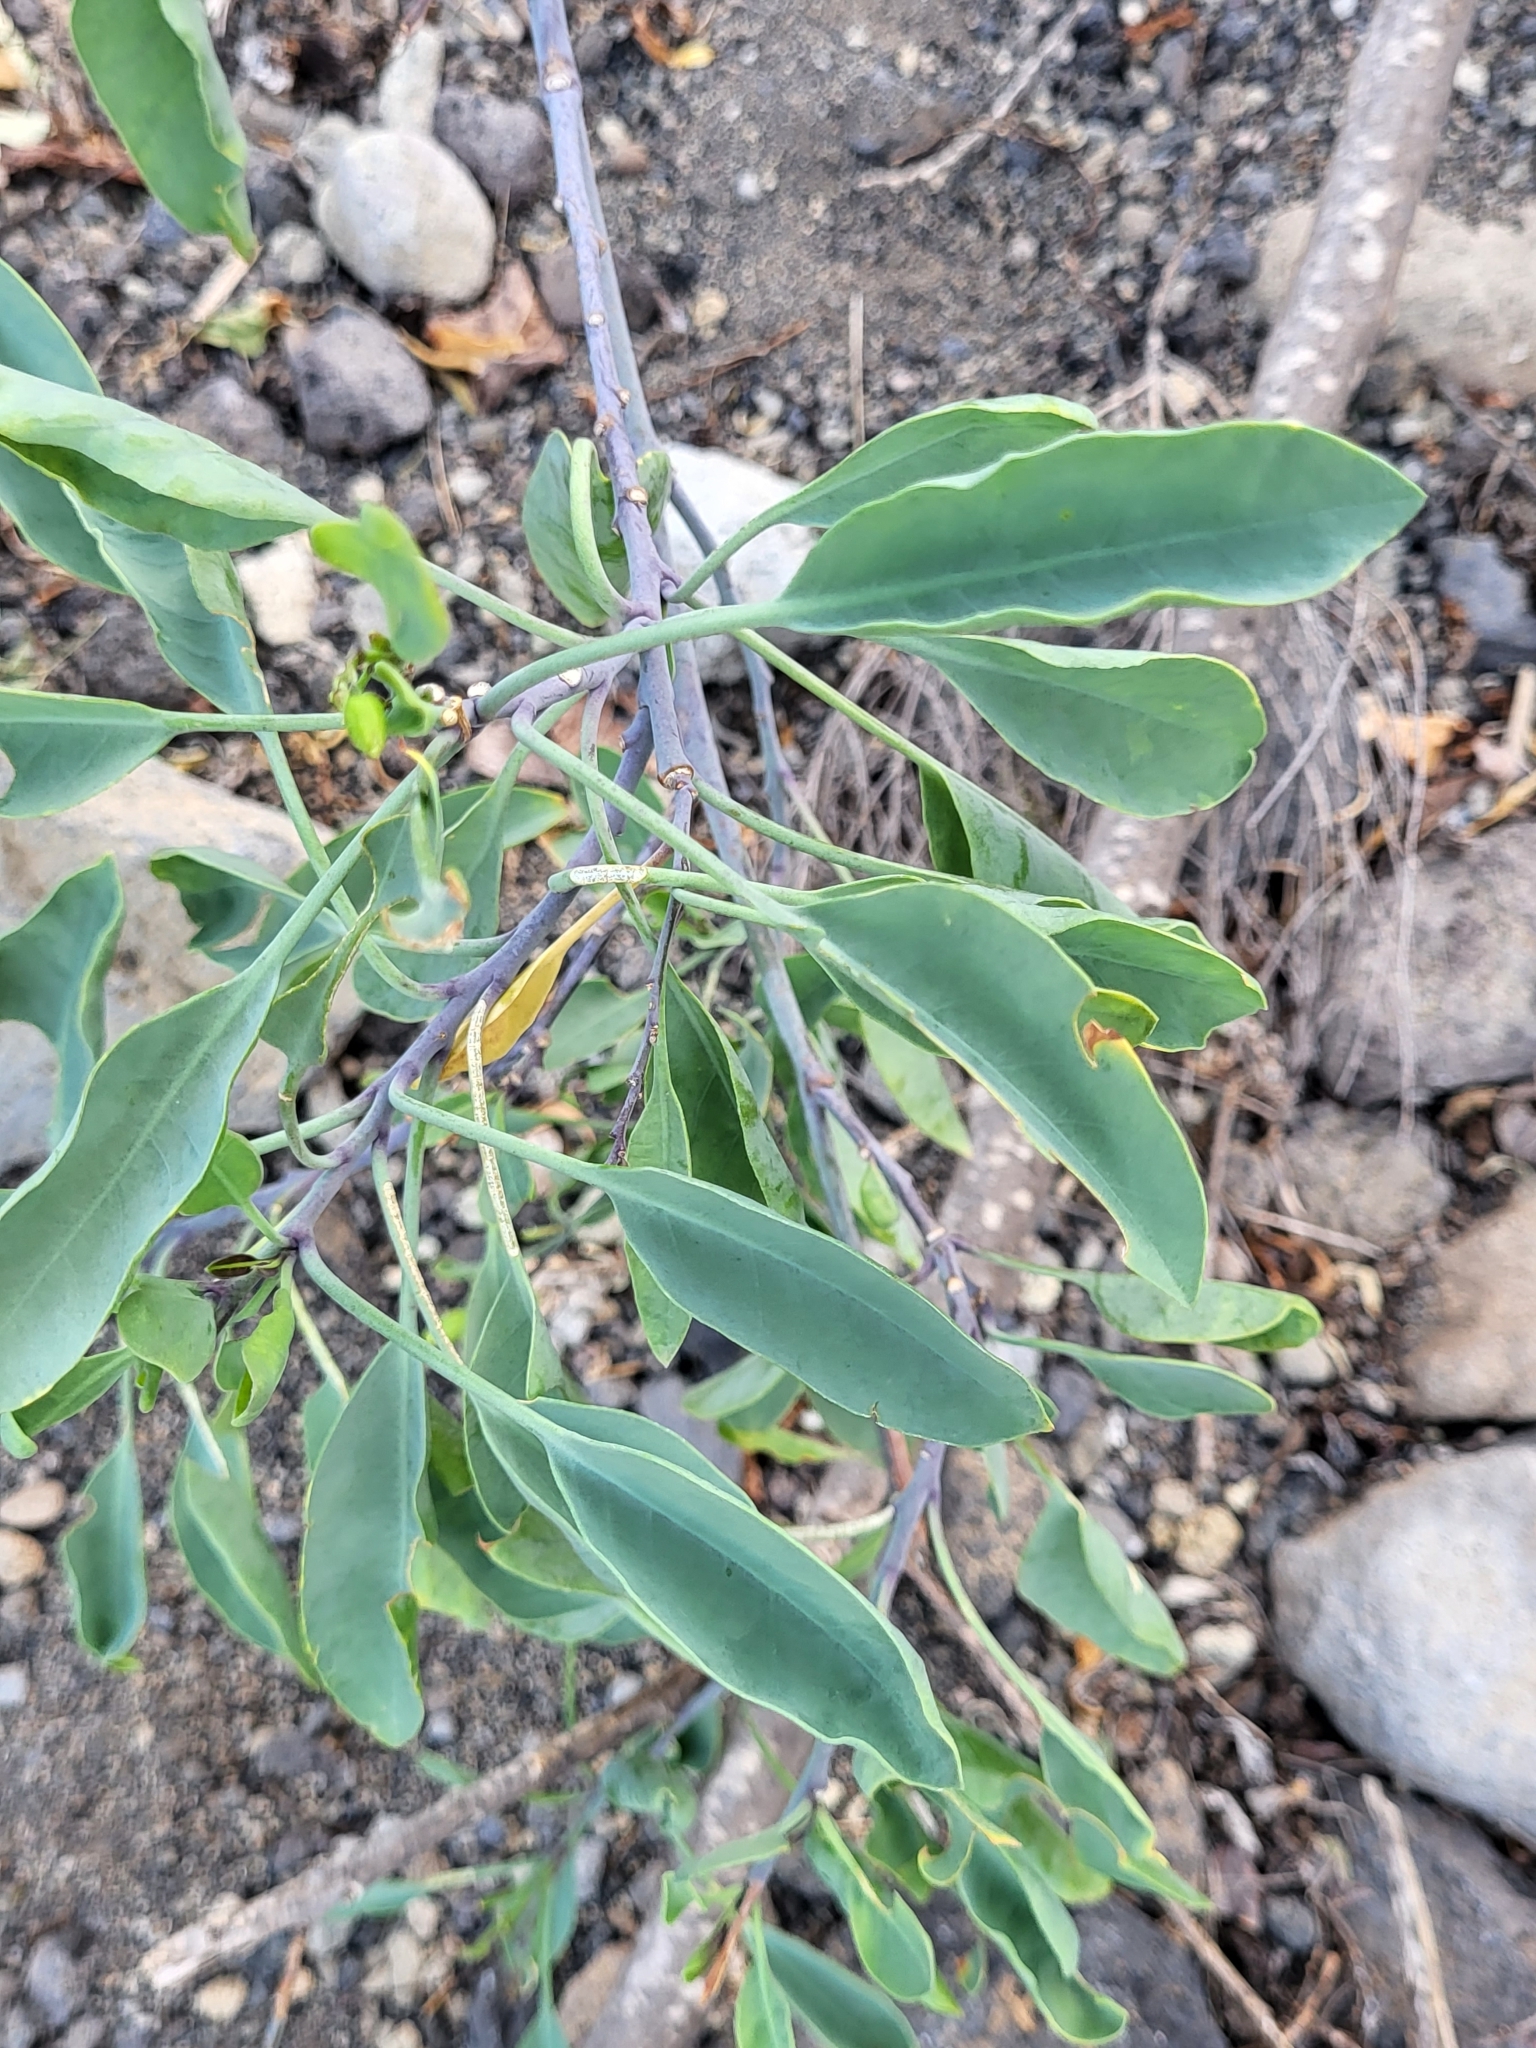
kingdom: Plantae
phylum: Tracheophyta
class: Magnoliopsida
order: Solanales
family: Solanaceae
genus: Nicotiana
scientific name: Nicotiana glauca
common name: Tree tobacco
